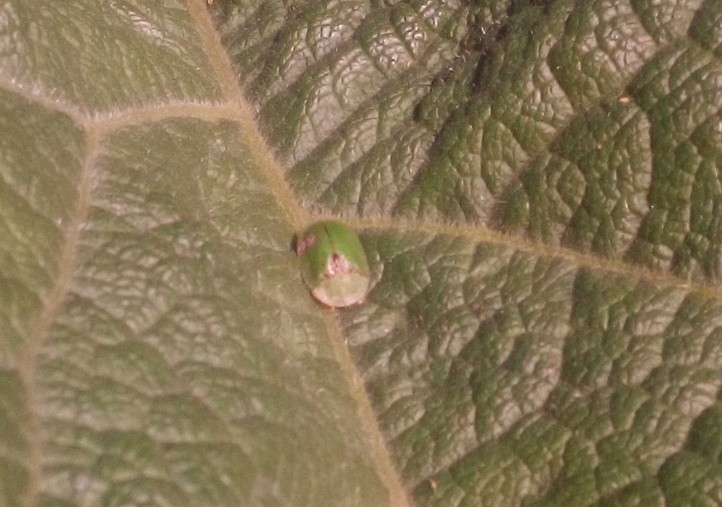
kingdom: Animalia
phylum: Arthropoda
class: Insecta
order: Coleoptera
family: Chrysomelidae
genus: Cassida
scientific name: Cassida rubiginosa
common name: Thistle tortoise beetle
